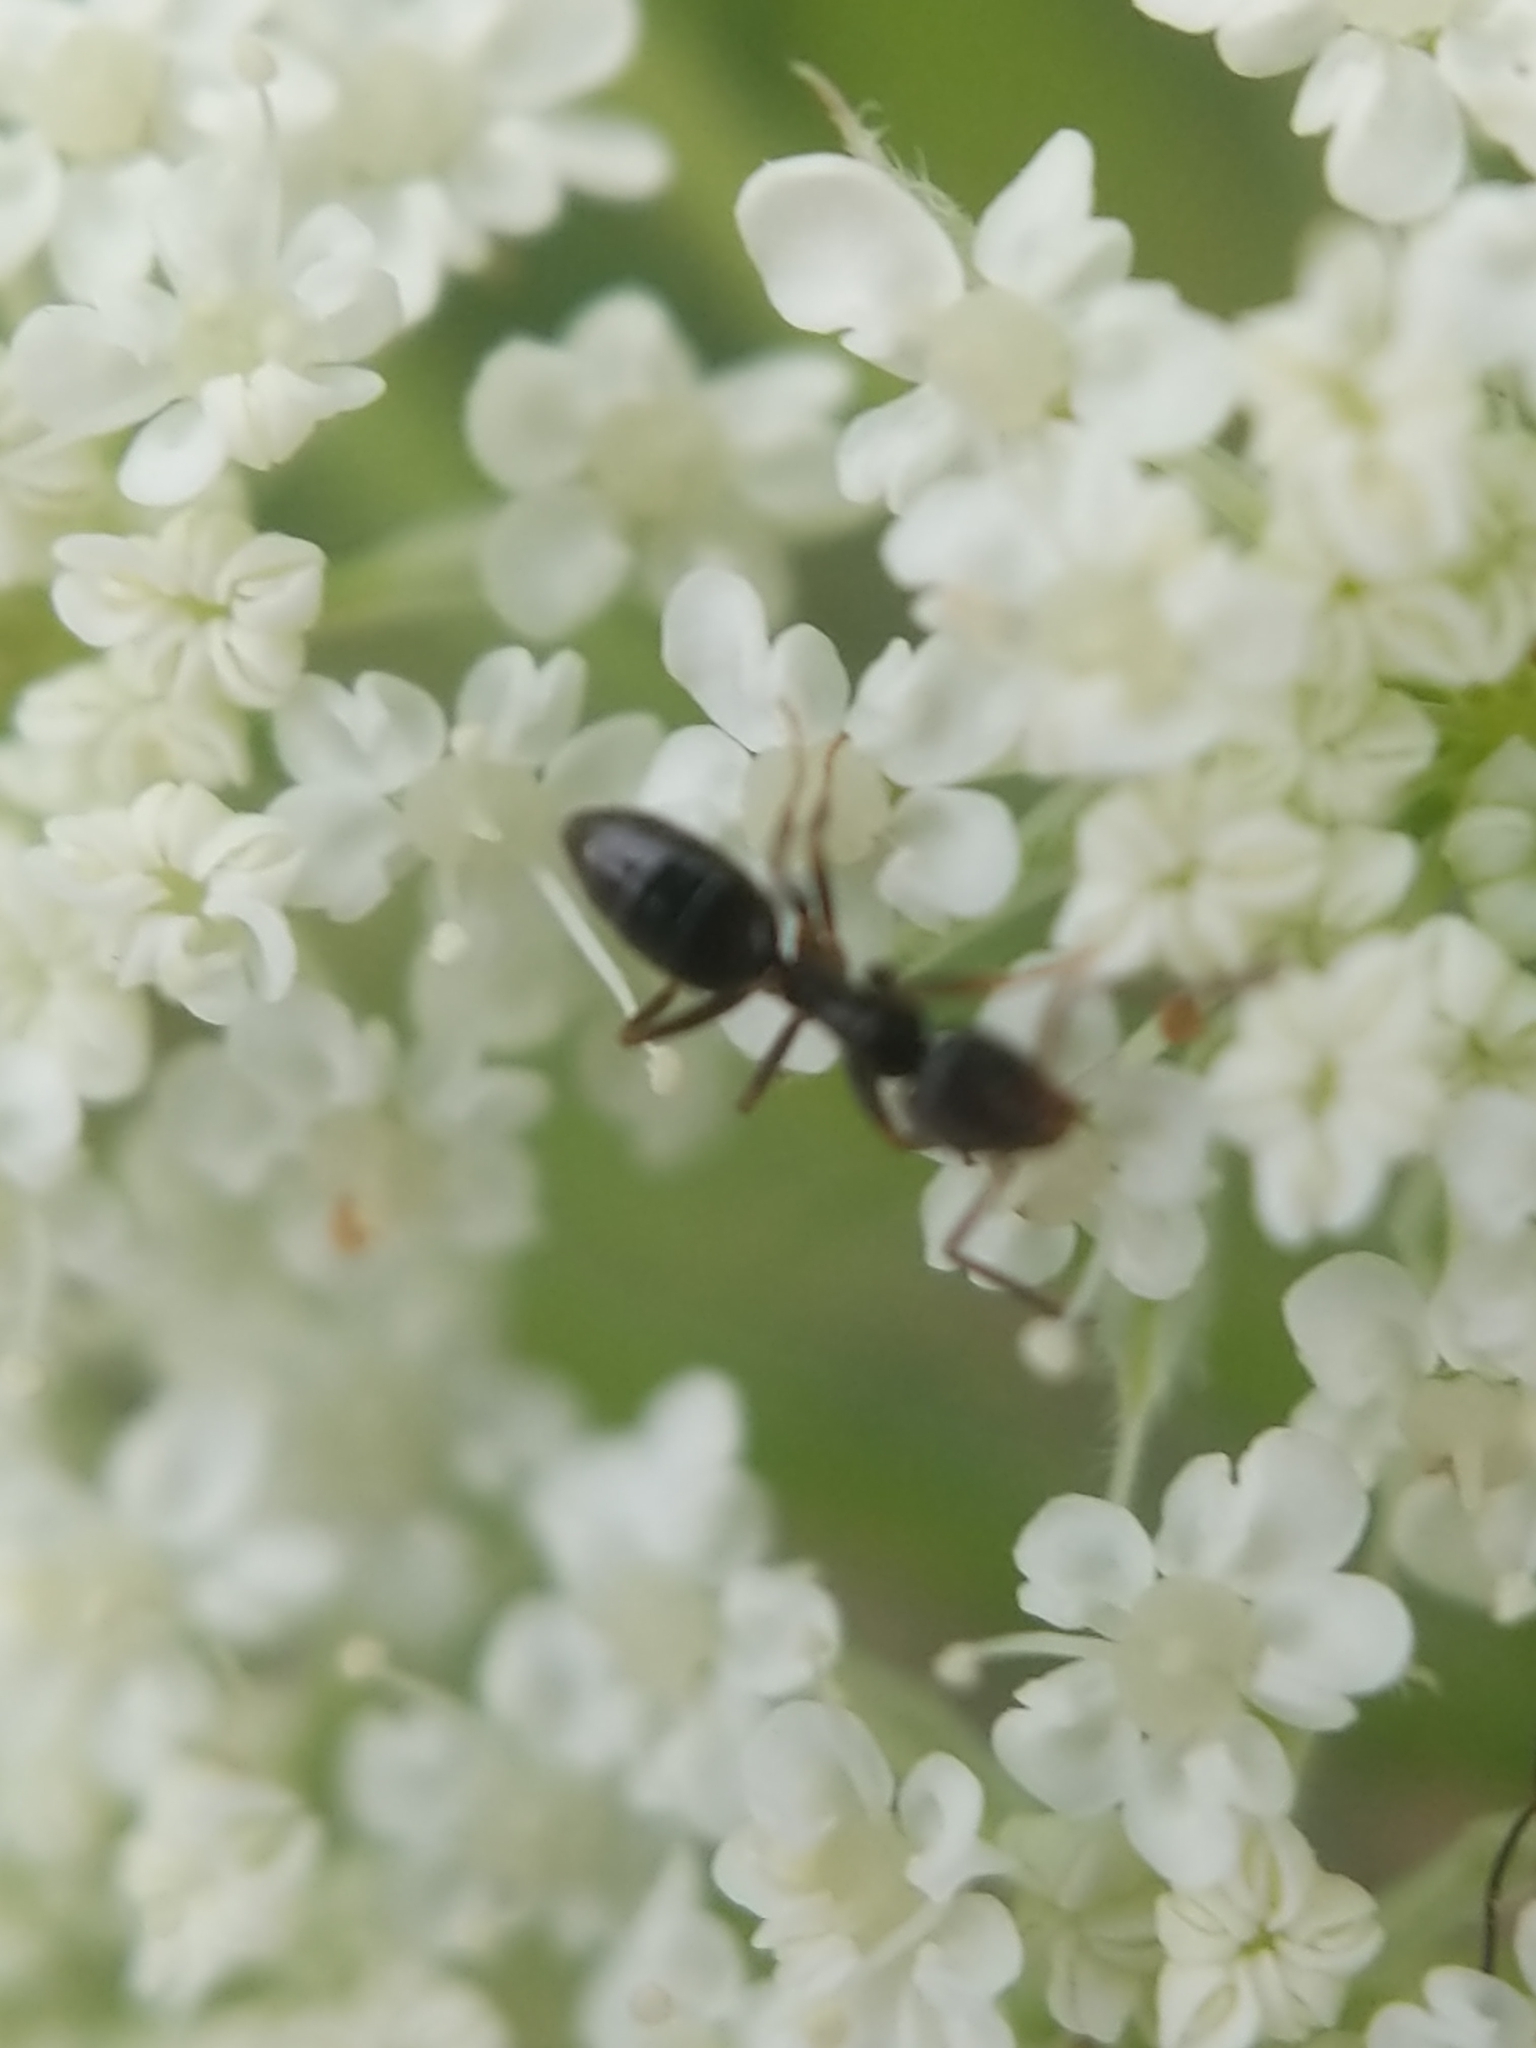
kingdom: Animalia
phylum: Arthropoda
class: Insecta
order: Hymenoptera
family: Formicidae
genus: Tapinoma
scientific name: Tapinoma sessile
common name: Odorous house ant
